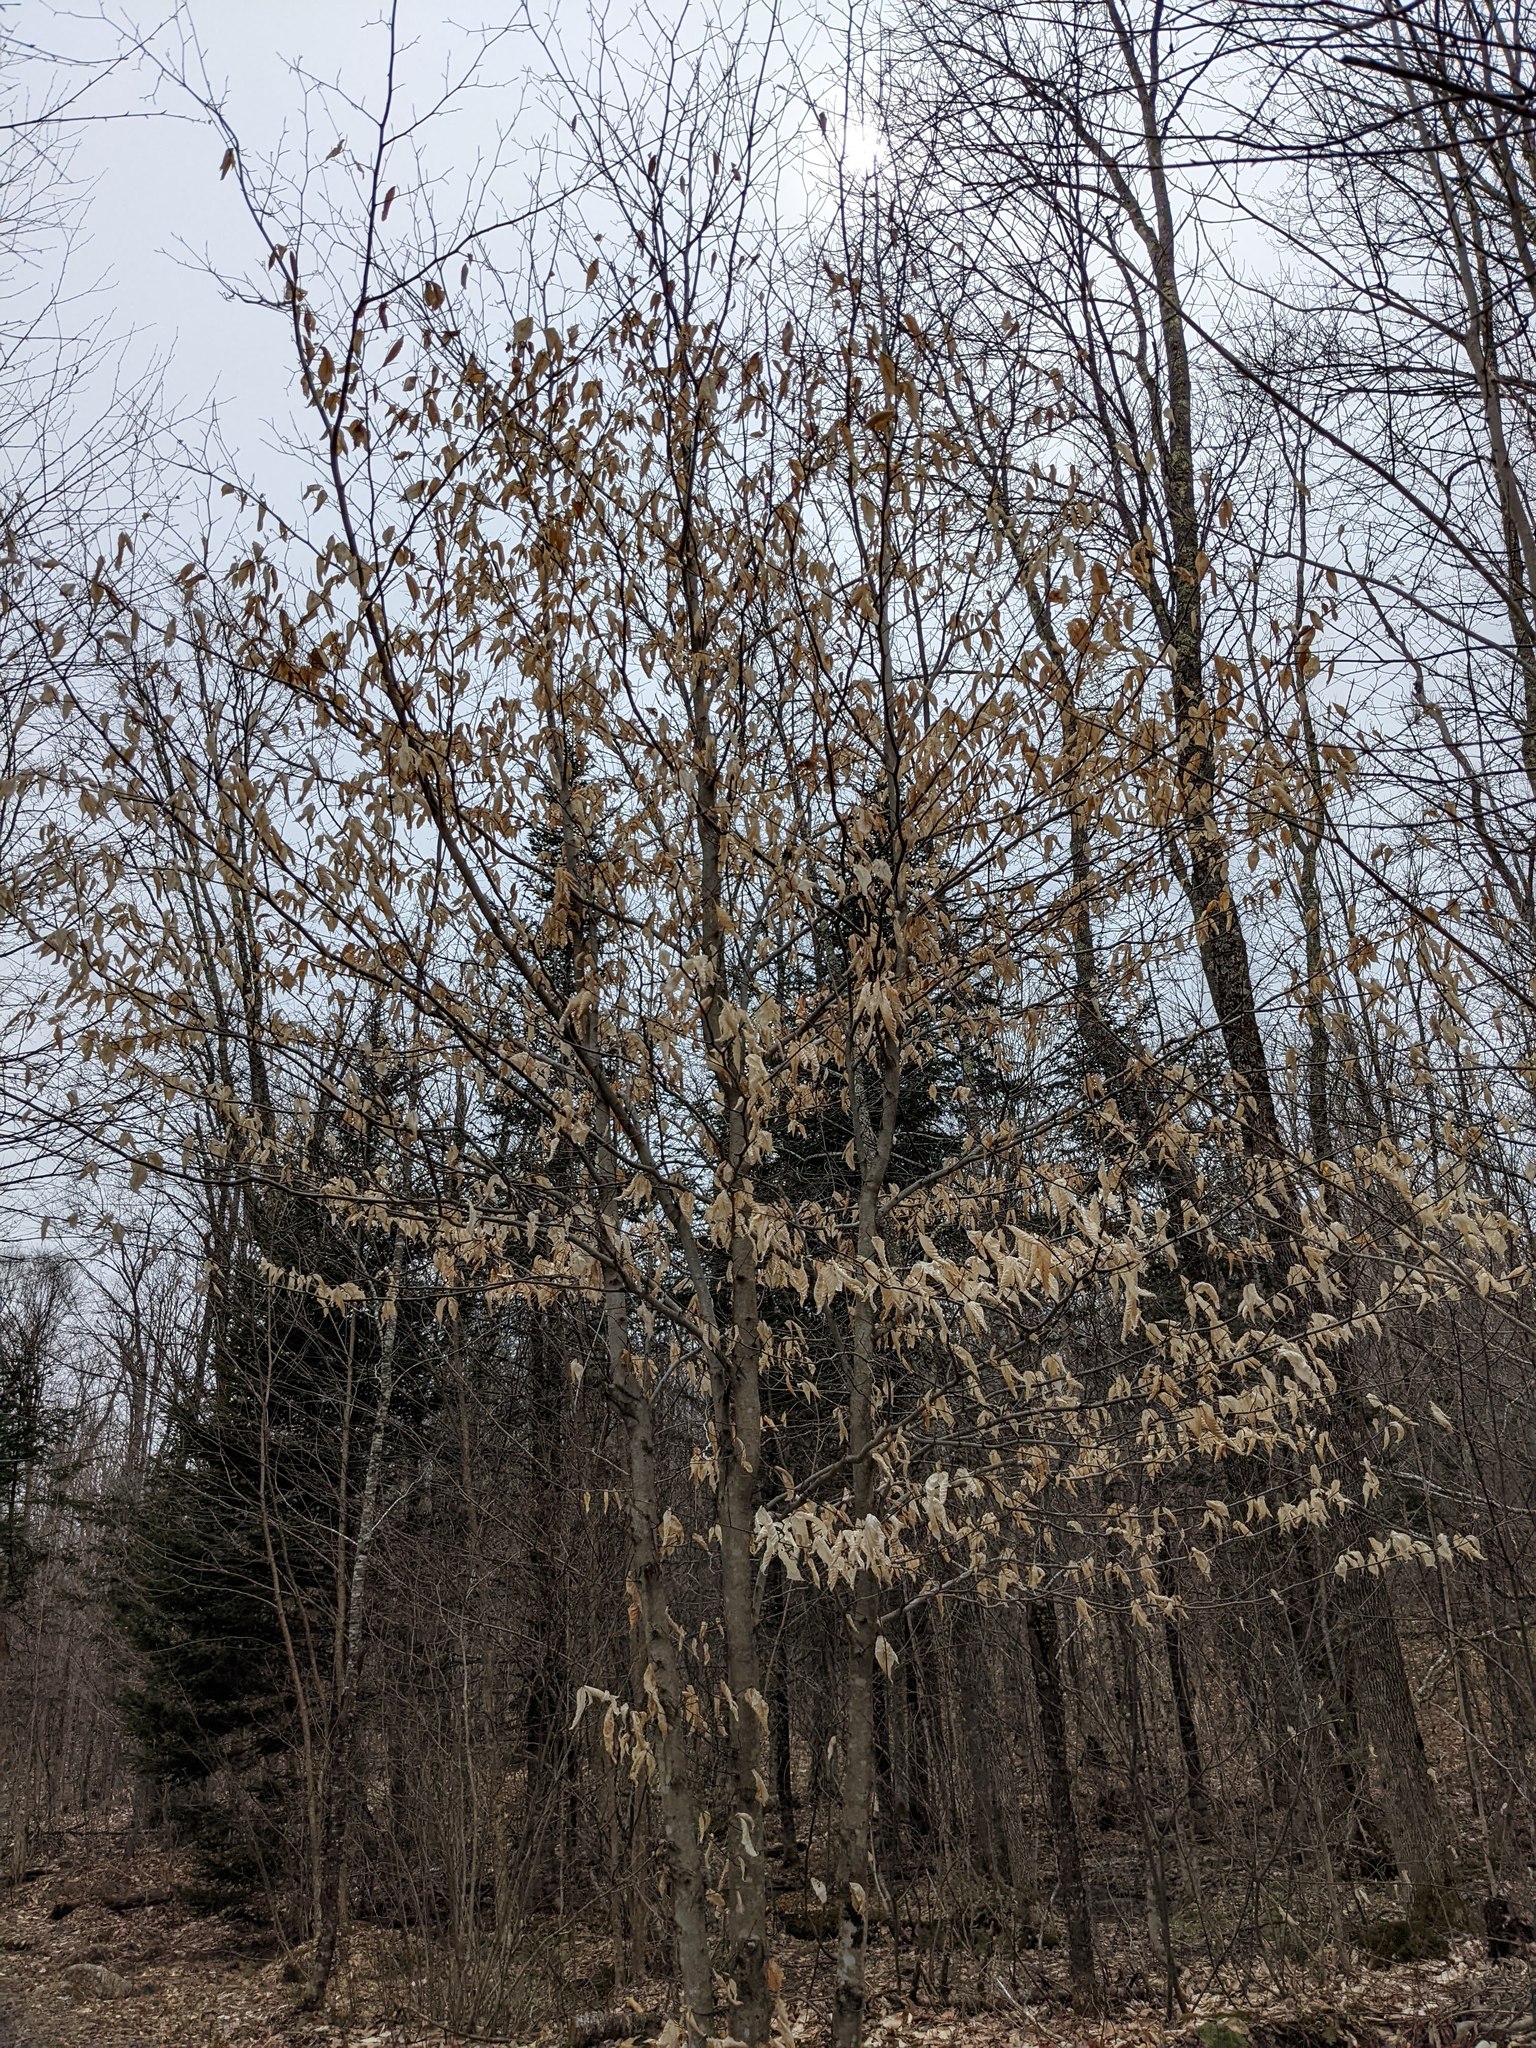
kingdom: Plantae
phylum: Tracheophyta
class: Magnoliopsida
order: Fagales
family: Fagaceae
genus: Fagus
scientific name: Fagus grandifolia
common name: American beech
